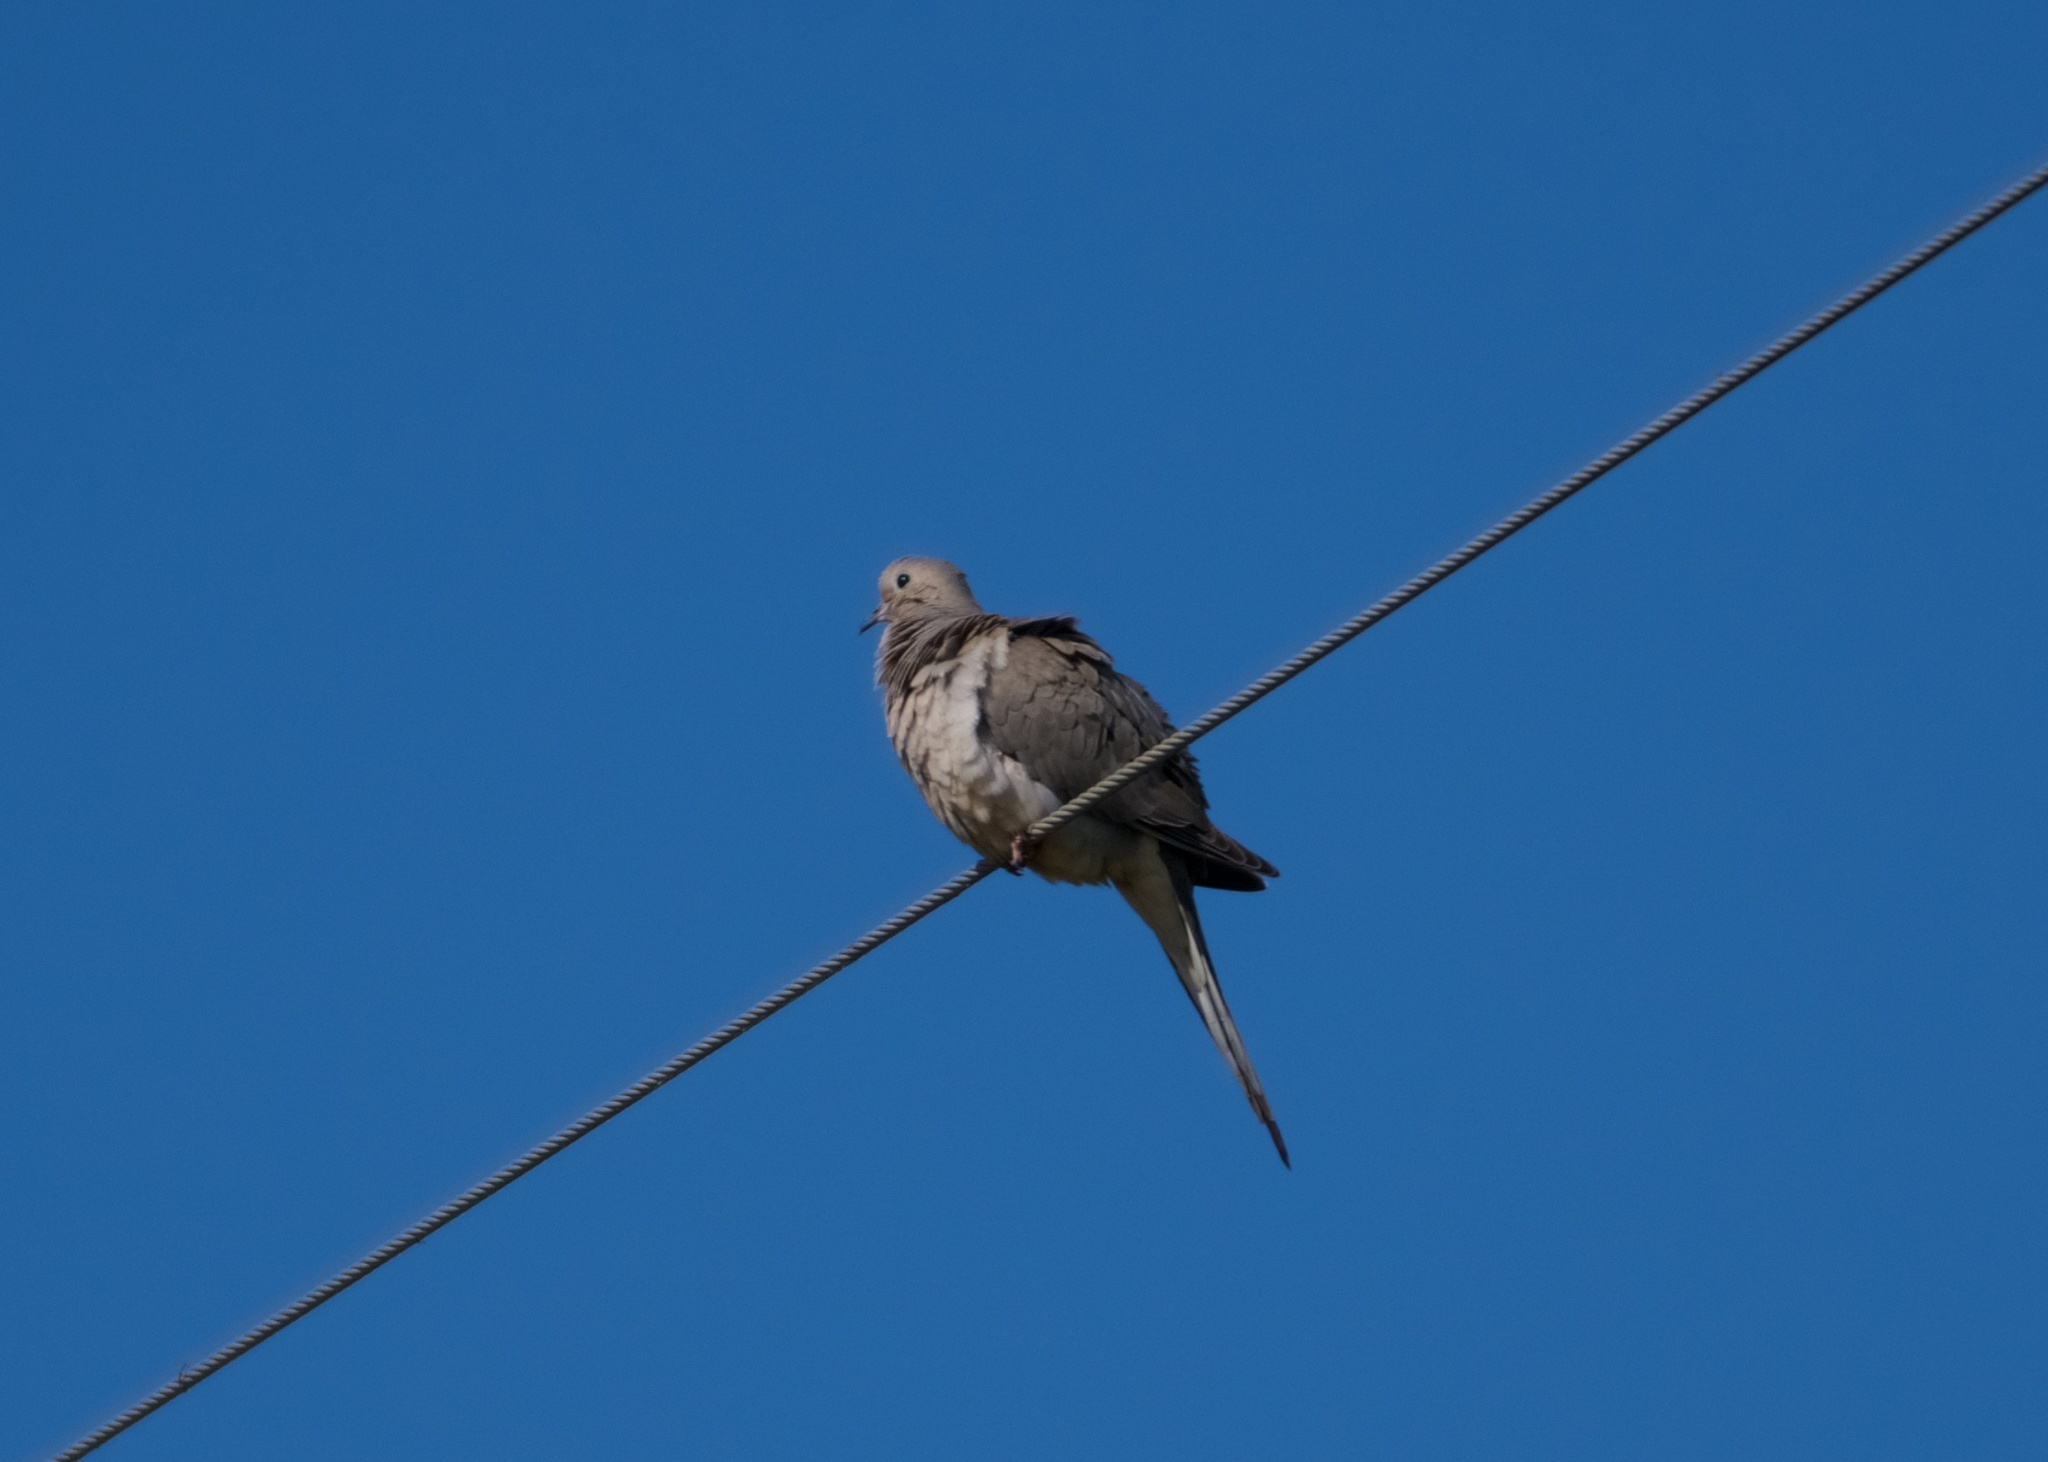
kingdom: Animalia
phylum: Chordata
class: Aves
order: Columbiformes
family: Columbidae
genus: Zenaida
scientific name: Zenaida macroura
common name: Mourning dove
